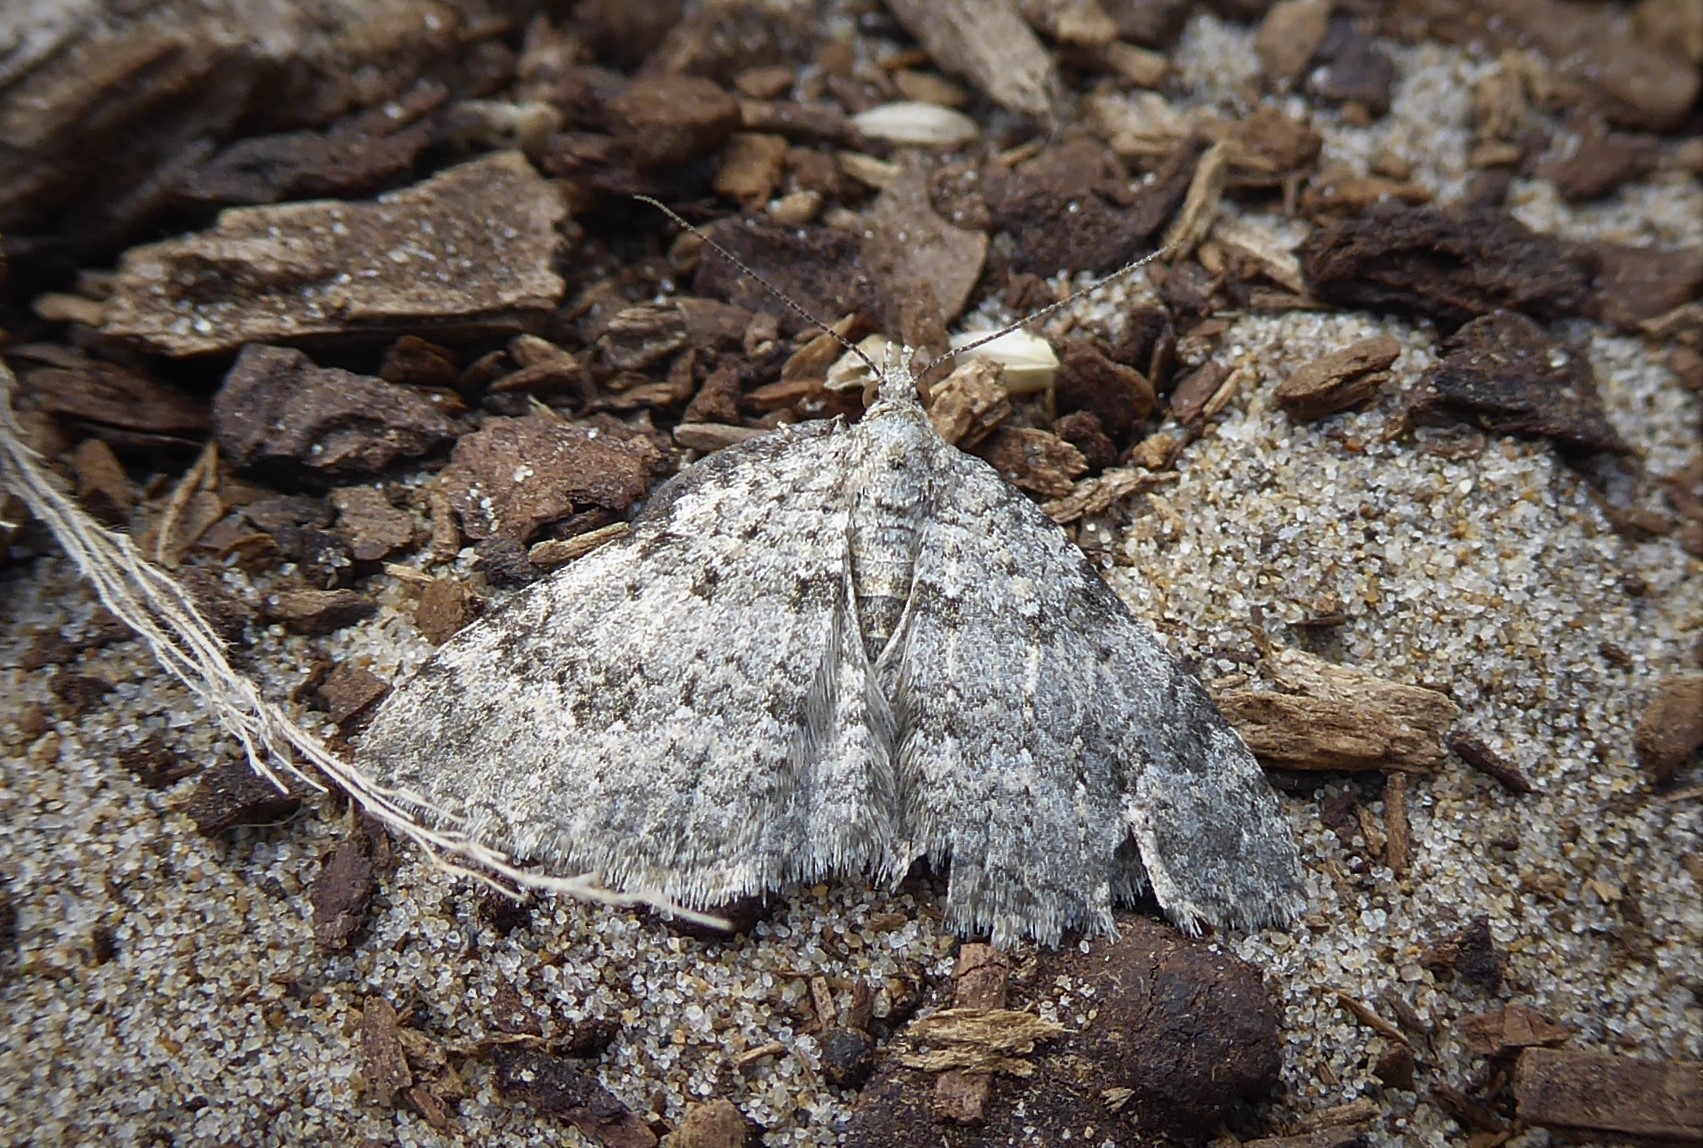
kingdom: Animalia
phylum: Arthropoda
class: Insecta
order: Lepidoptera
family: Geometridae
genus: Helastia
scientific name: Helastia corcularia
